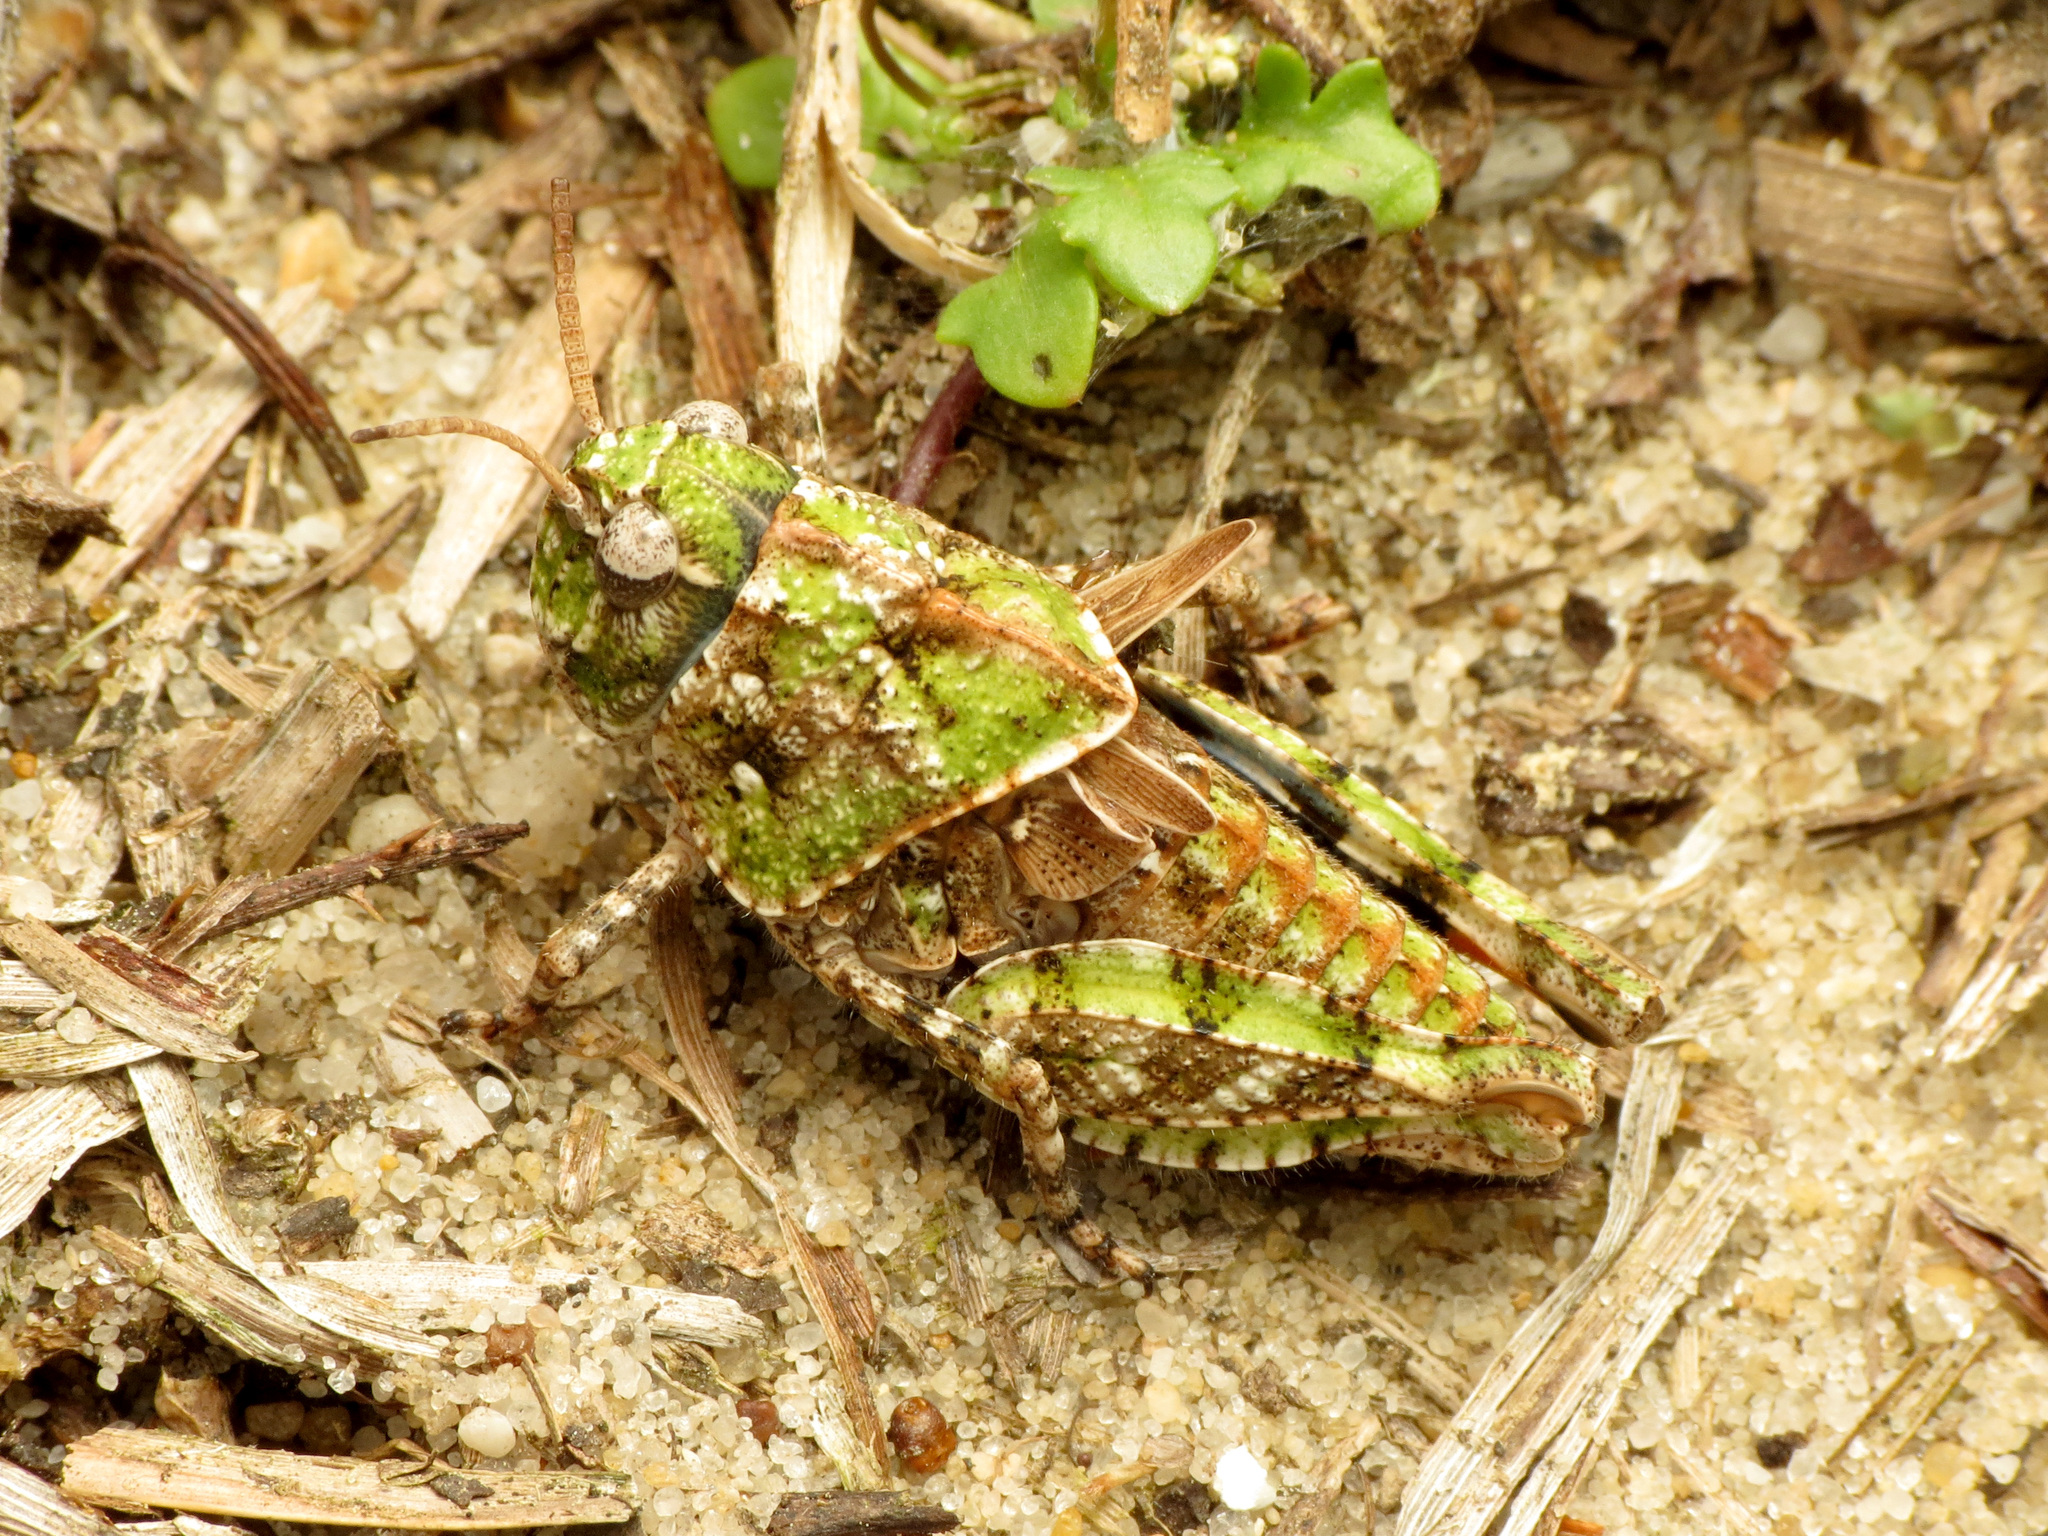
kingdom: Animalia
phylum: Arthropoda
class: Insecta
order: Orthoptera
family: Acrididae
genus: Pardalophora
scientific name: Pardalophora phoenicoptera
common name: Orange-winged grasshopper
